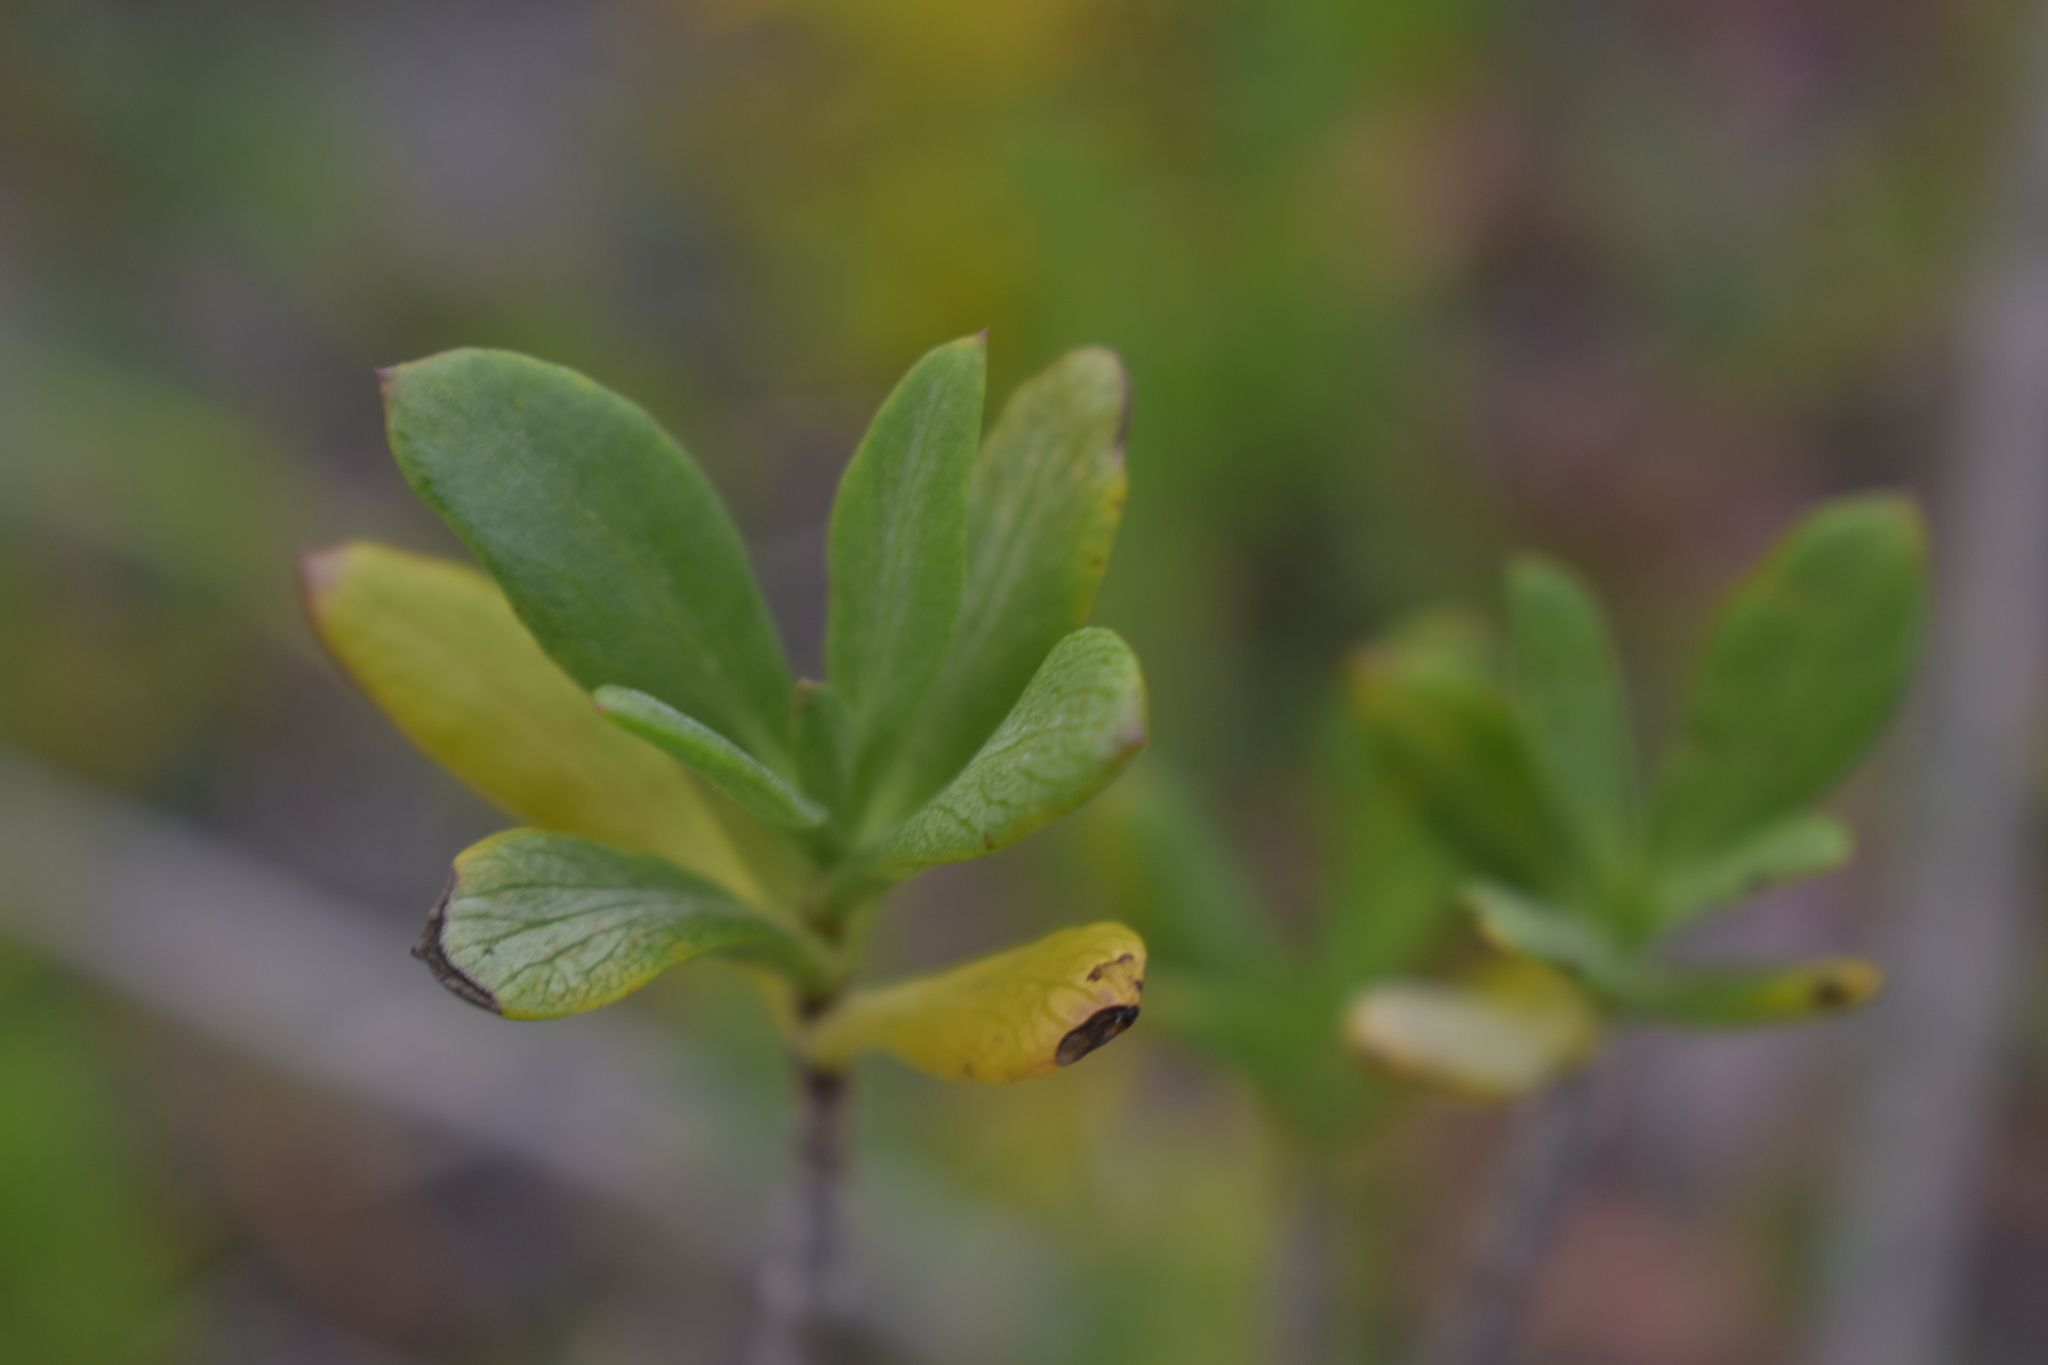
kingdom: Plantae
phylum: Tracheophyta
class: Magnoliopsida
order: Asterales
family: Asteraceae
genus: Borrichia
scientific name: Borrichia frutescens
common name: Sea oxeye
